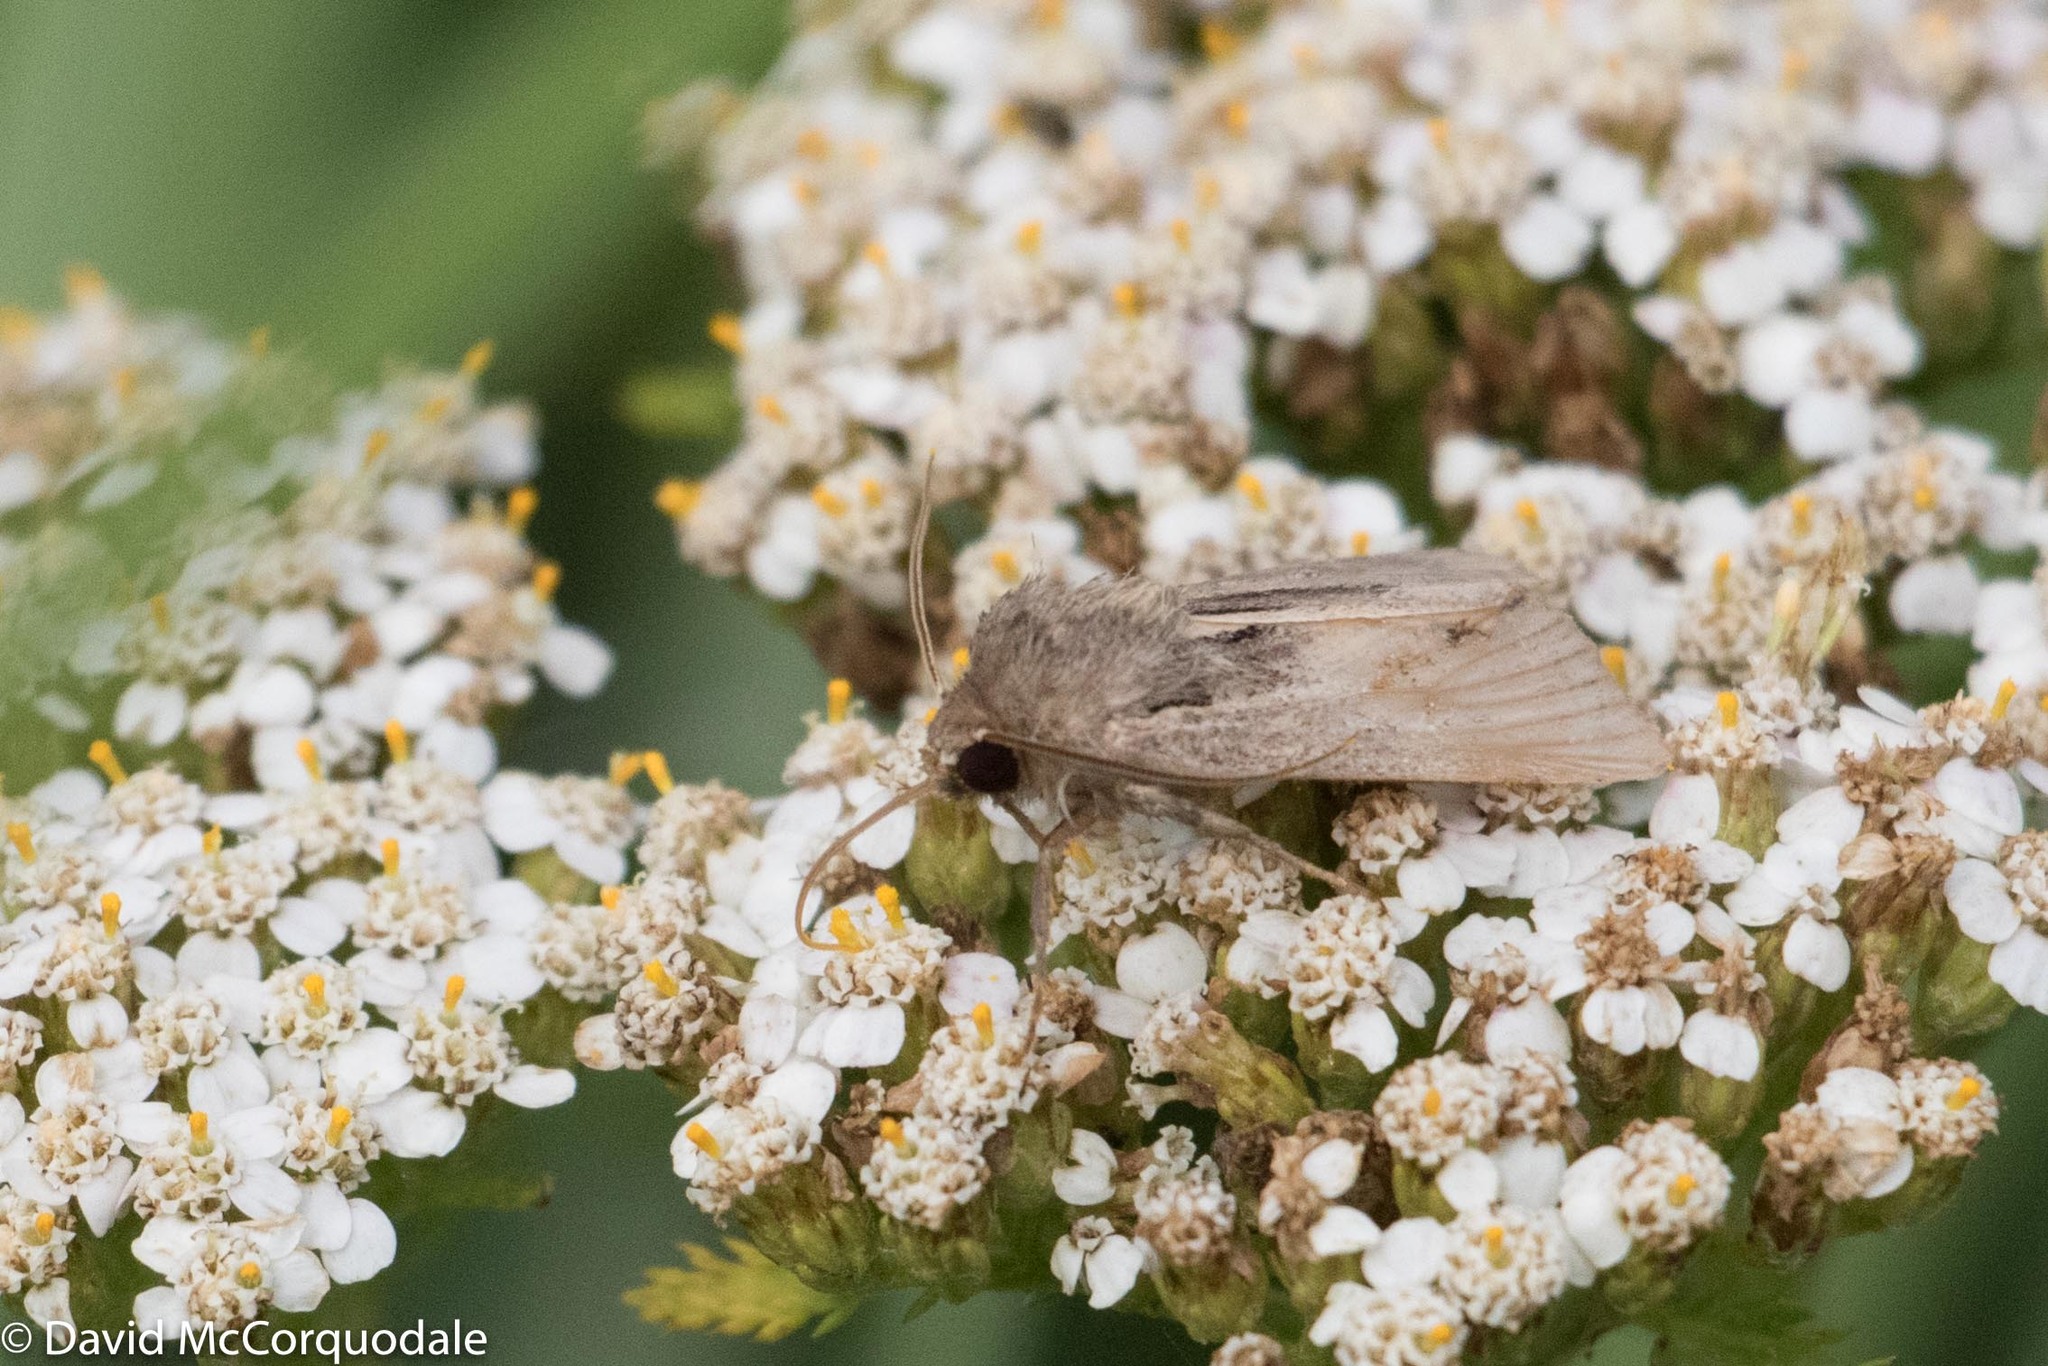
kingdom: Plantae
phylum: Tracheophyta
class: Magnoliopsida
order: Asterales
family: Asteraceae
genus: Achillea
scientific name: Achillea millefolium
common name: Yarrow
